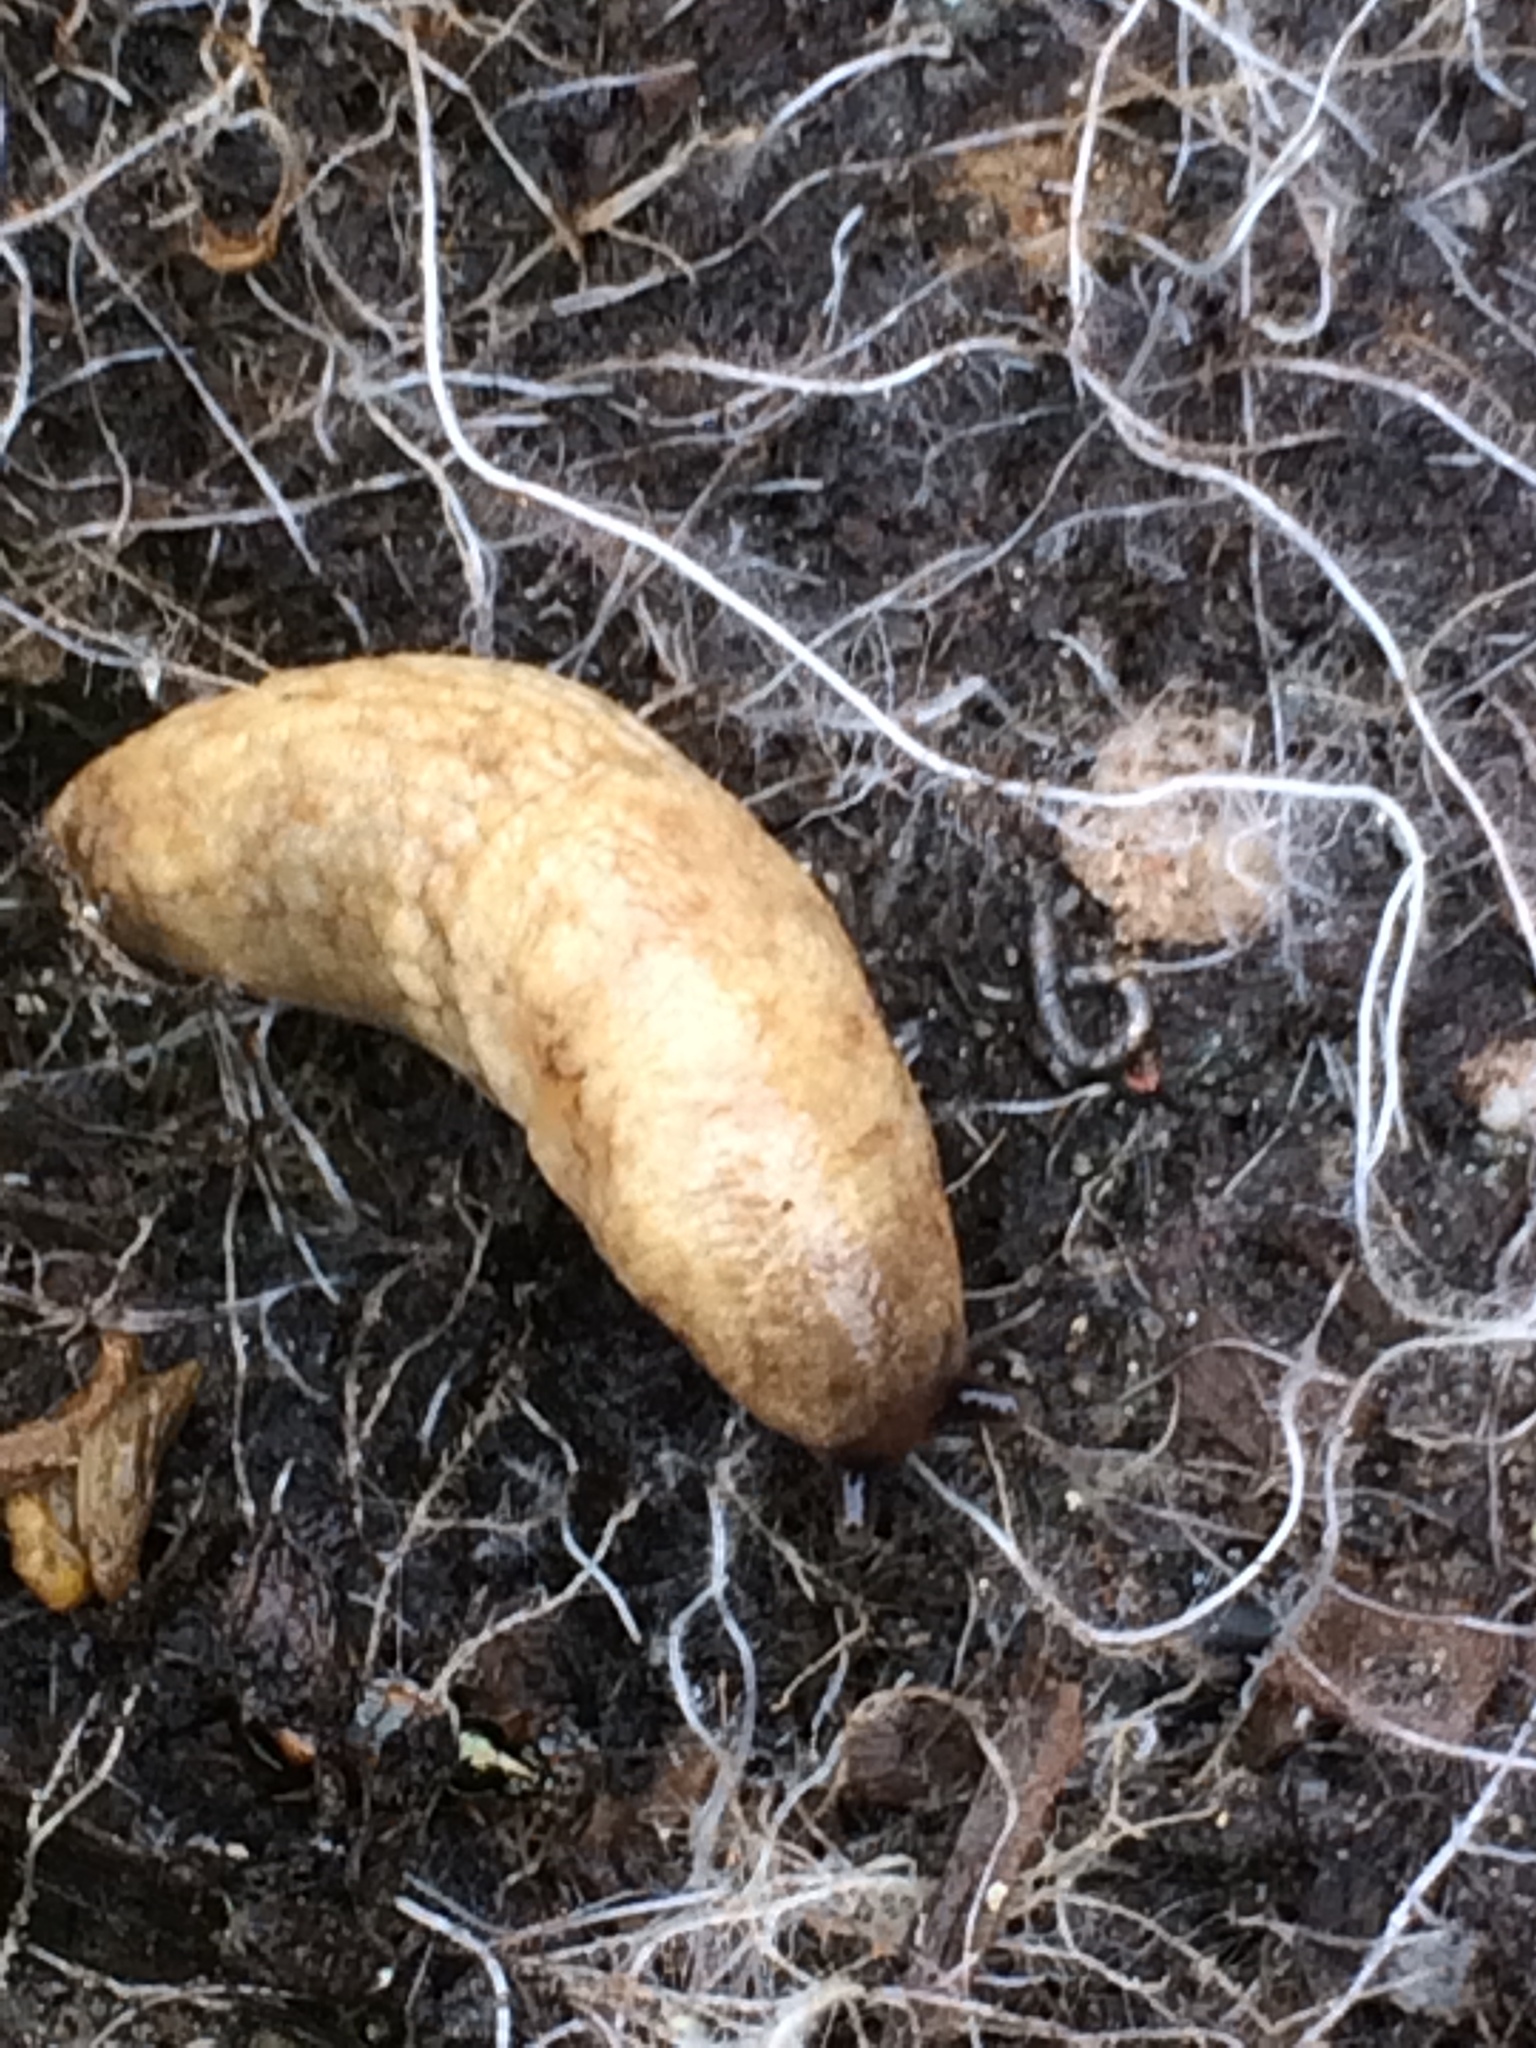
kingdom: Animalia
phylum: Mollusca
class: Gastropoda
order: Stylommatophora
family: Agriolimacidae
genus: Deroceras
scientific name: Deroceras reticulatum
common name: Gray field slug
